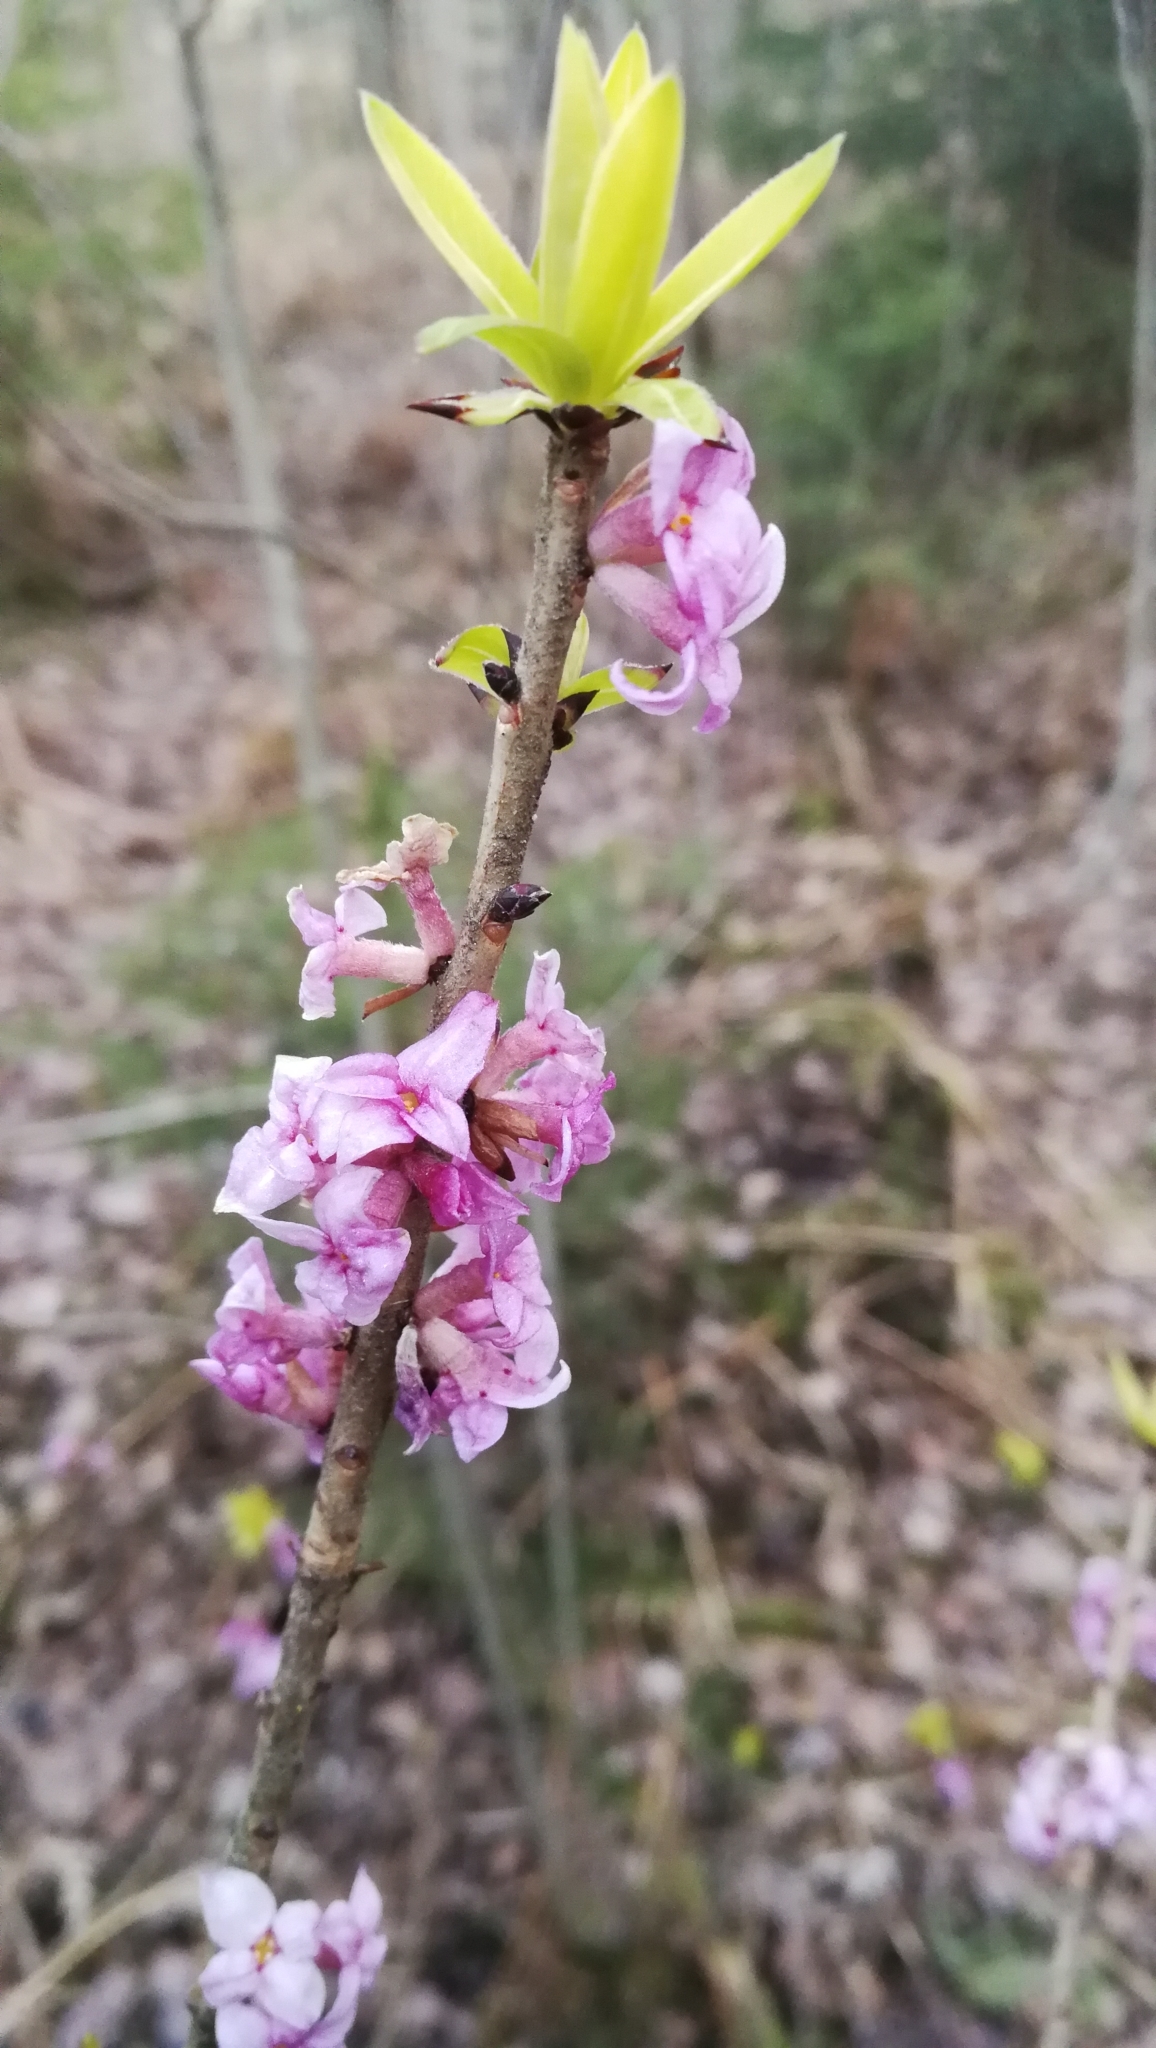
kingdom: Plantae
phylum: Tracheophyta
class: Magnoliopsida
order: Malvales
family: Thymelaeaceae
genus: Daphne
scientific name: Daphne mezereum
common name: Mezereon
